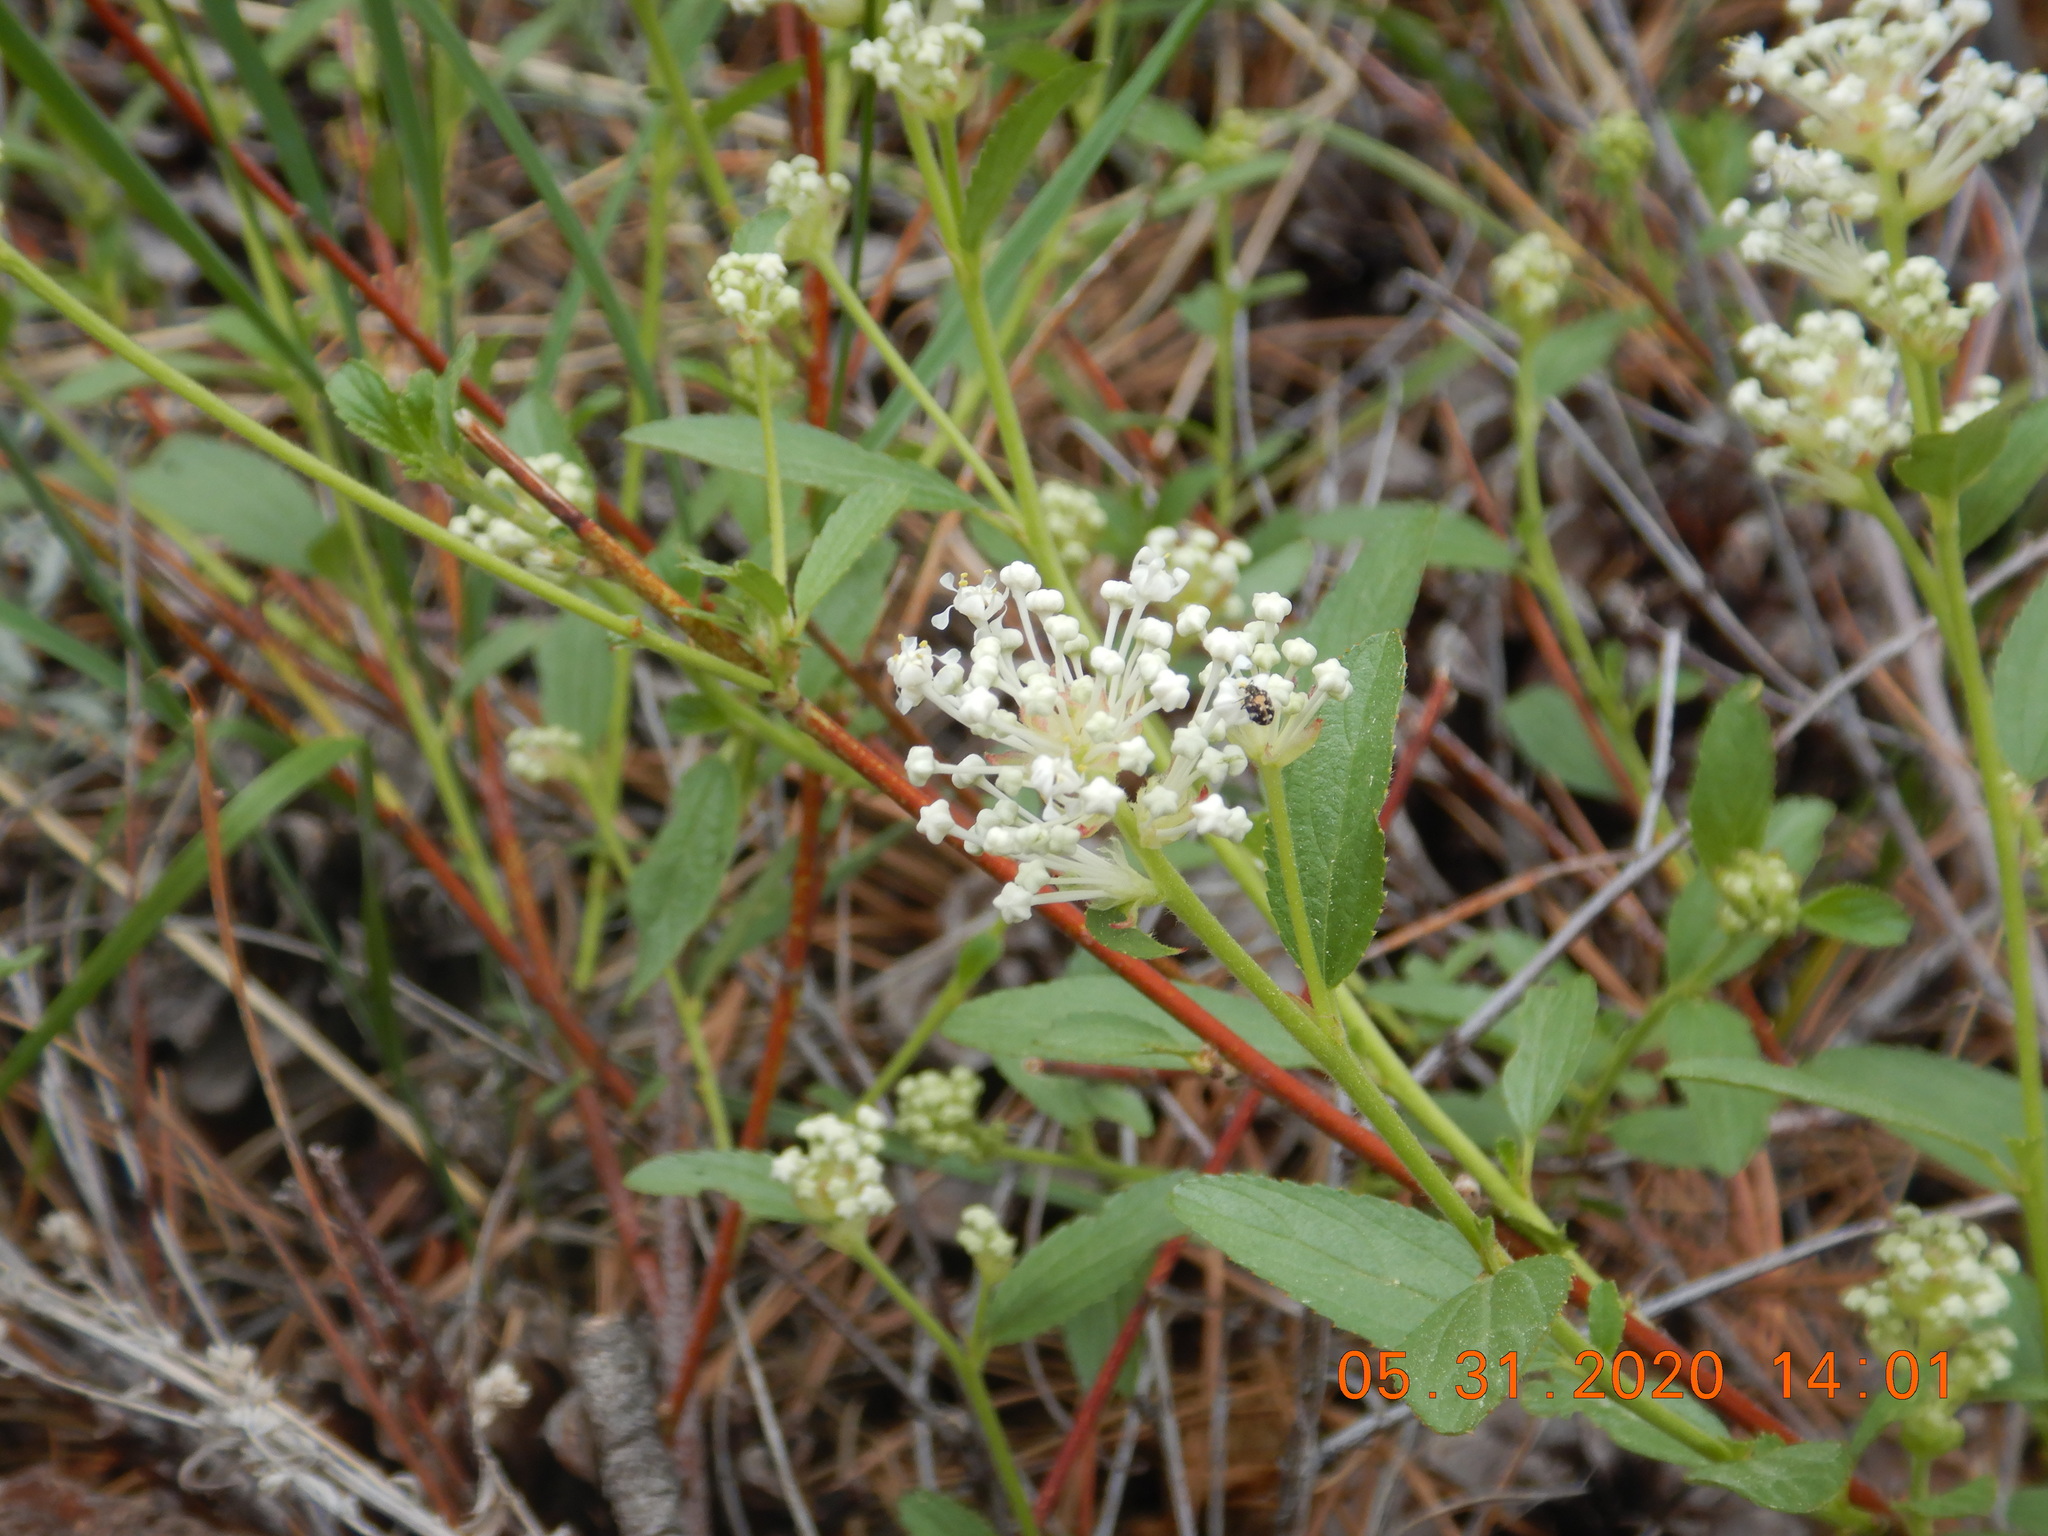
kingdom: Plantae
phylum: Tracheophyta
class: Magnoliopsida
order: Rosales
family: Rhamnaceae
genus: Ceanothus
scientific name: Ceanothus herbaceus
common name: Inland ceanothus
